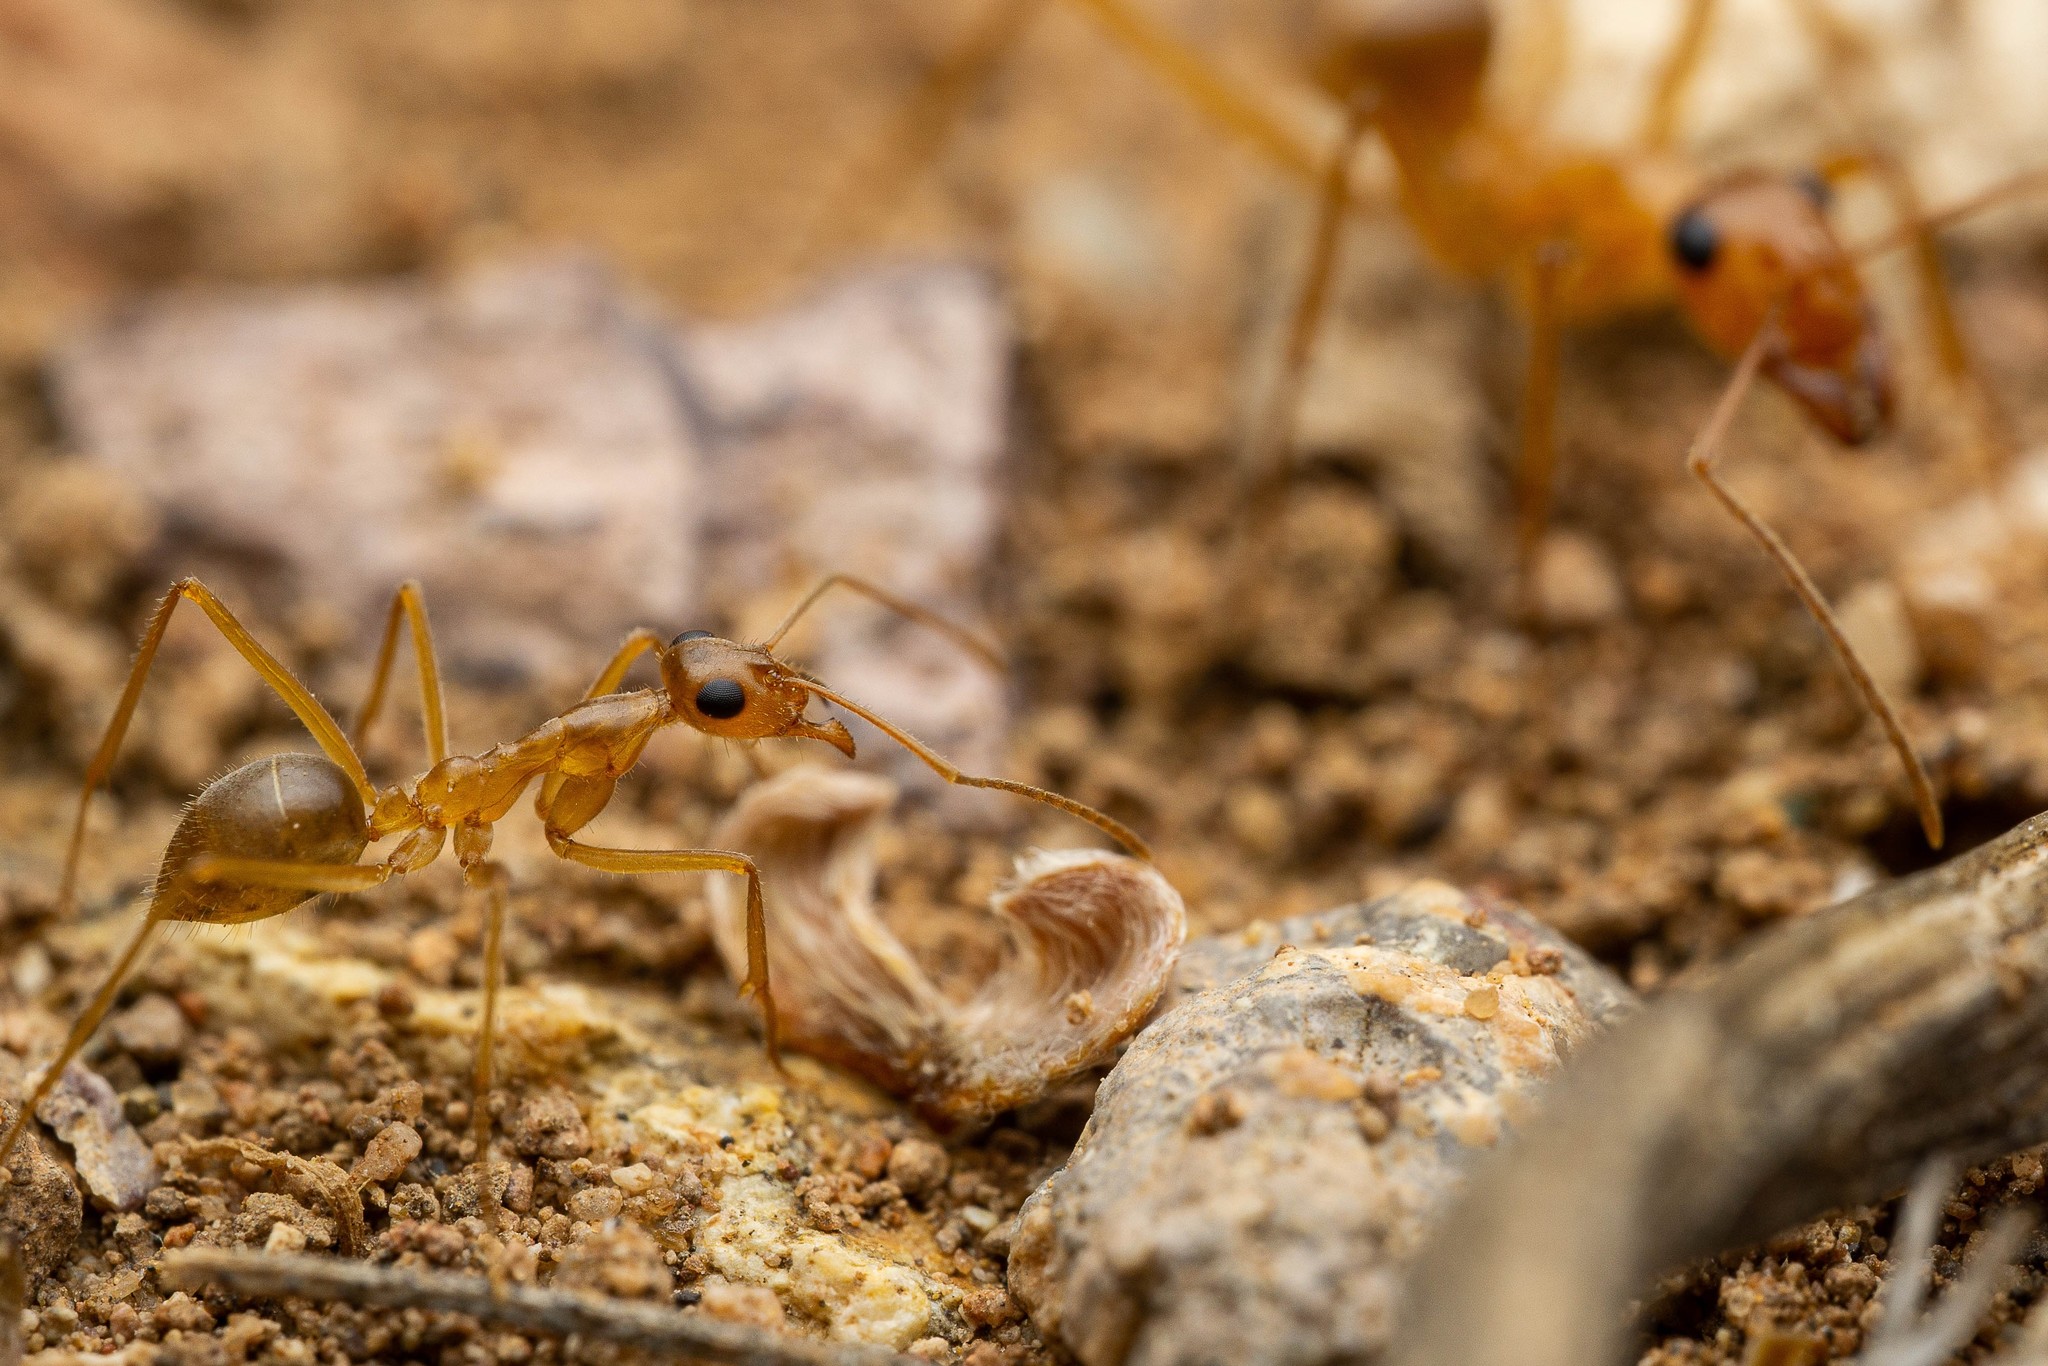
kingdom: Animalia
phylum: Arthropoda
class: Insecta
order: Hymenoptera
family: Formicidae
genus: Myrmecocystus
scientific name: Myrmecocystus mexicanus
